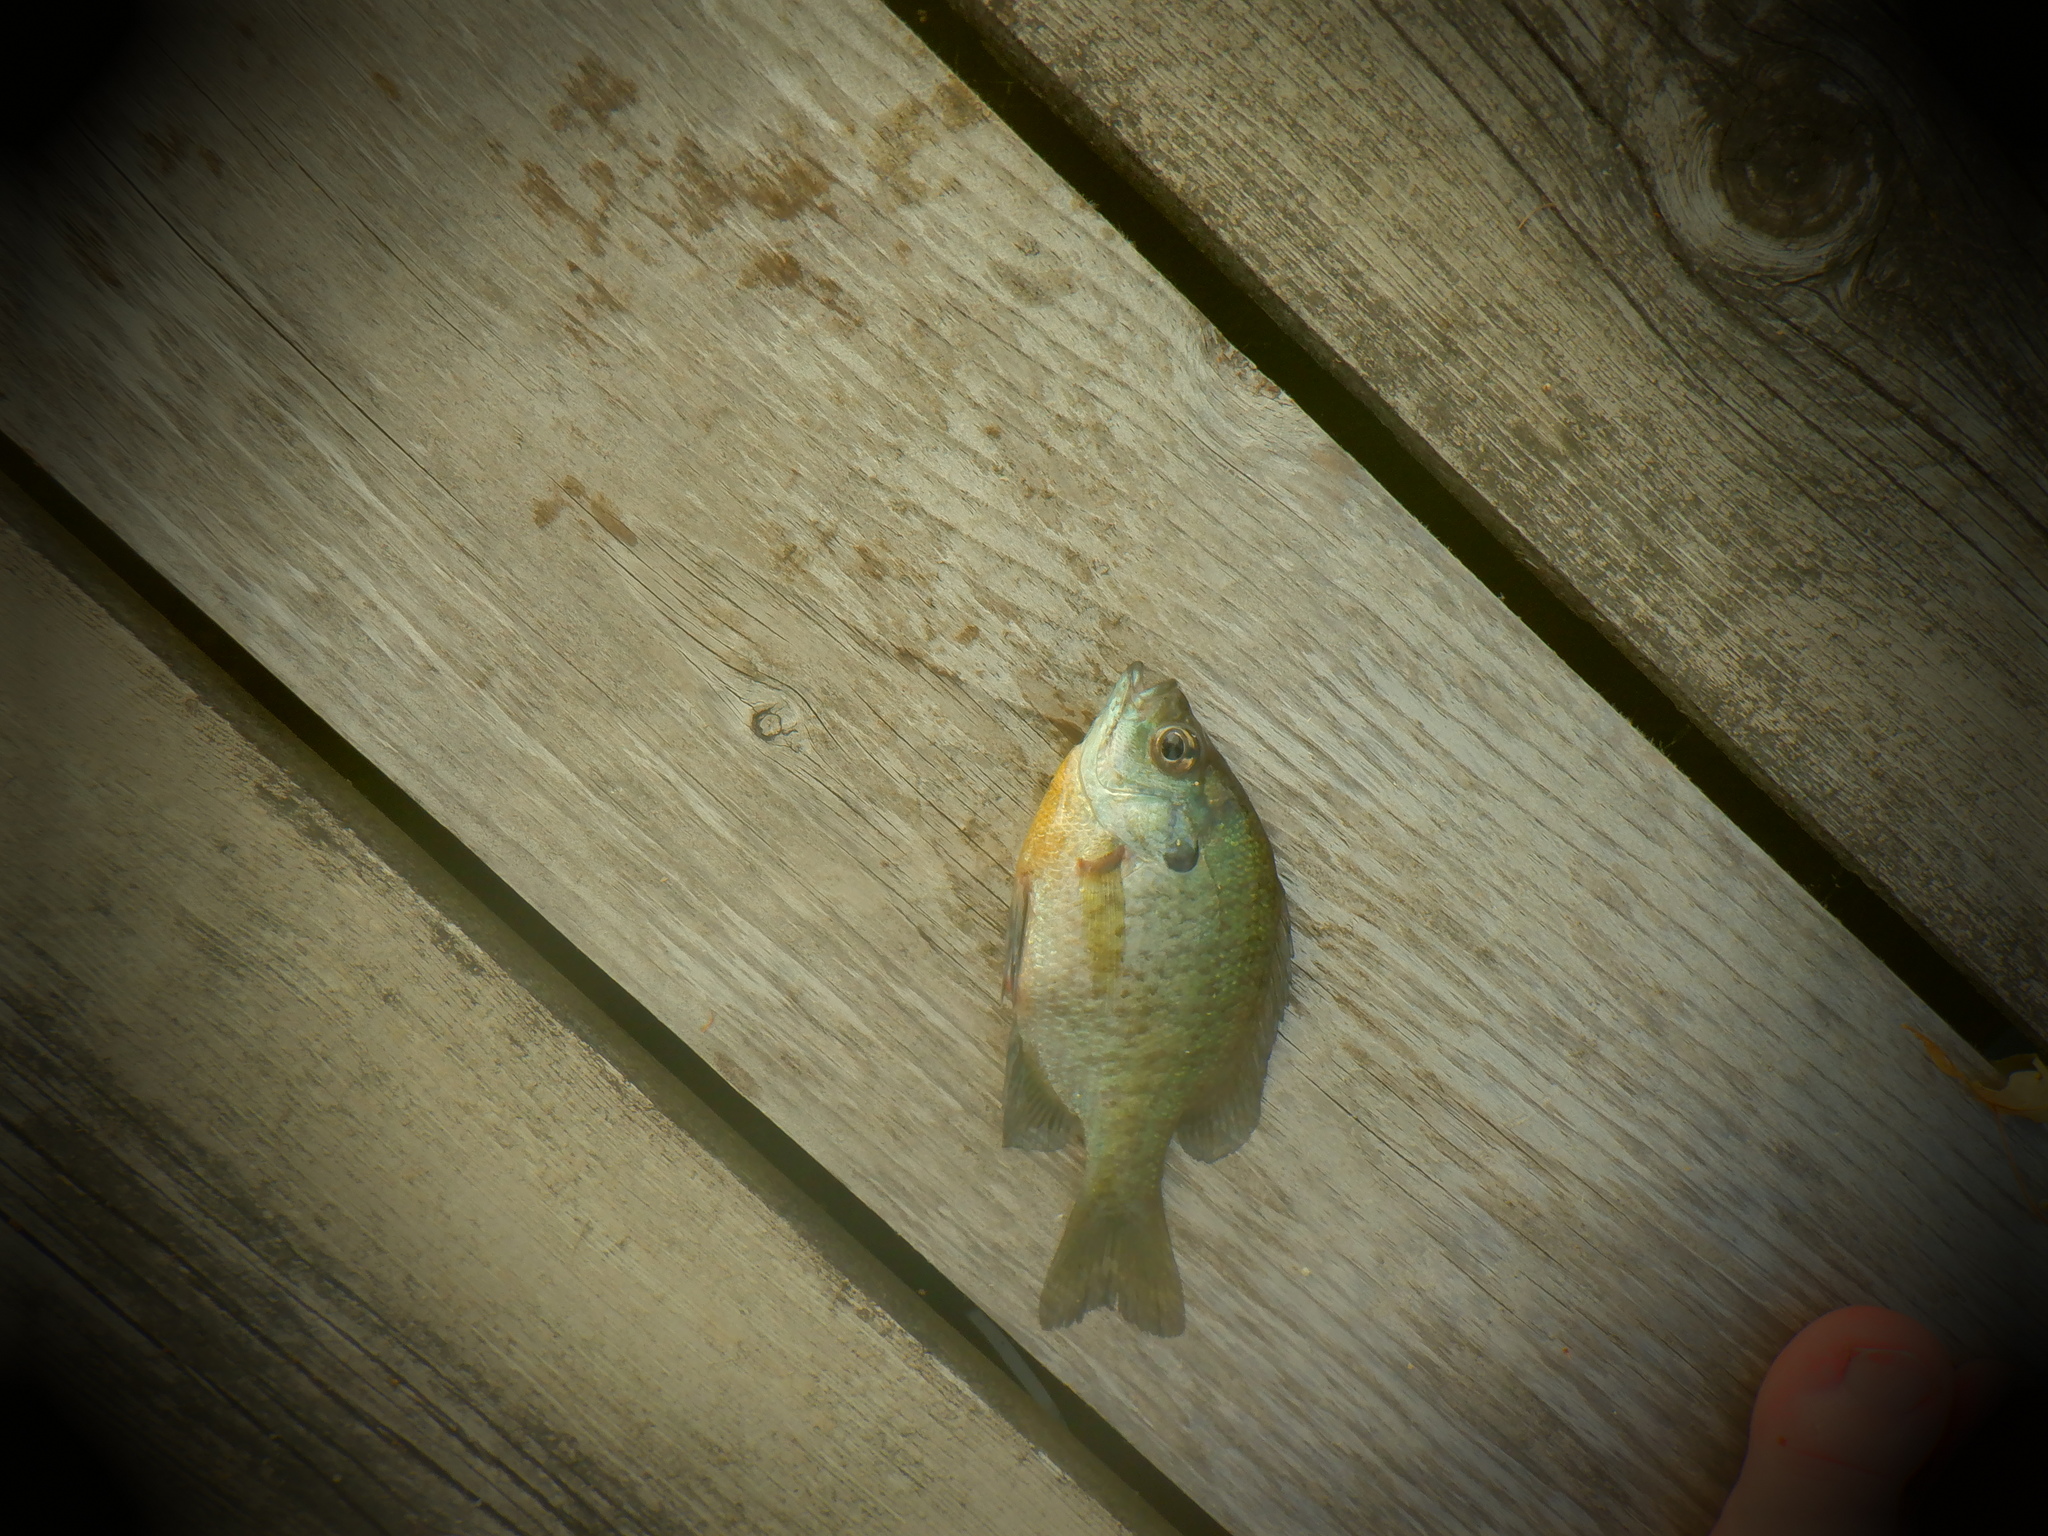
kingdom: Animalia
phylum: Chordata
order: Perciformes
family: Centrarchidae
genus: Lepomis
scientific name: Lepomis macrochirus
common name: Bluegill
